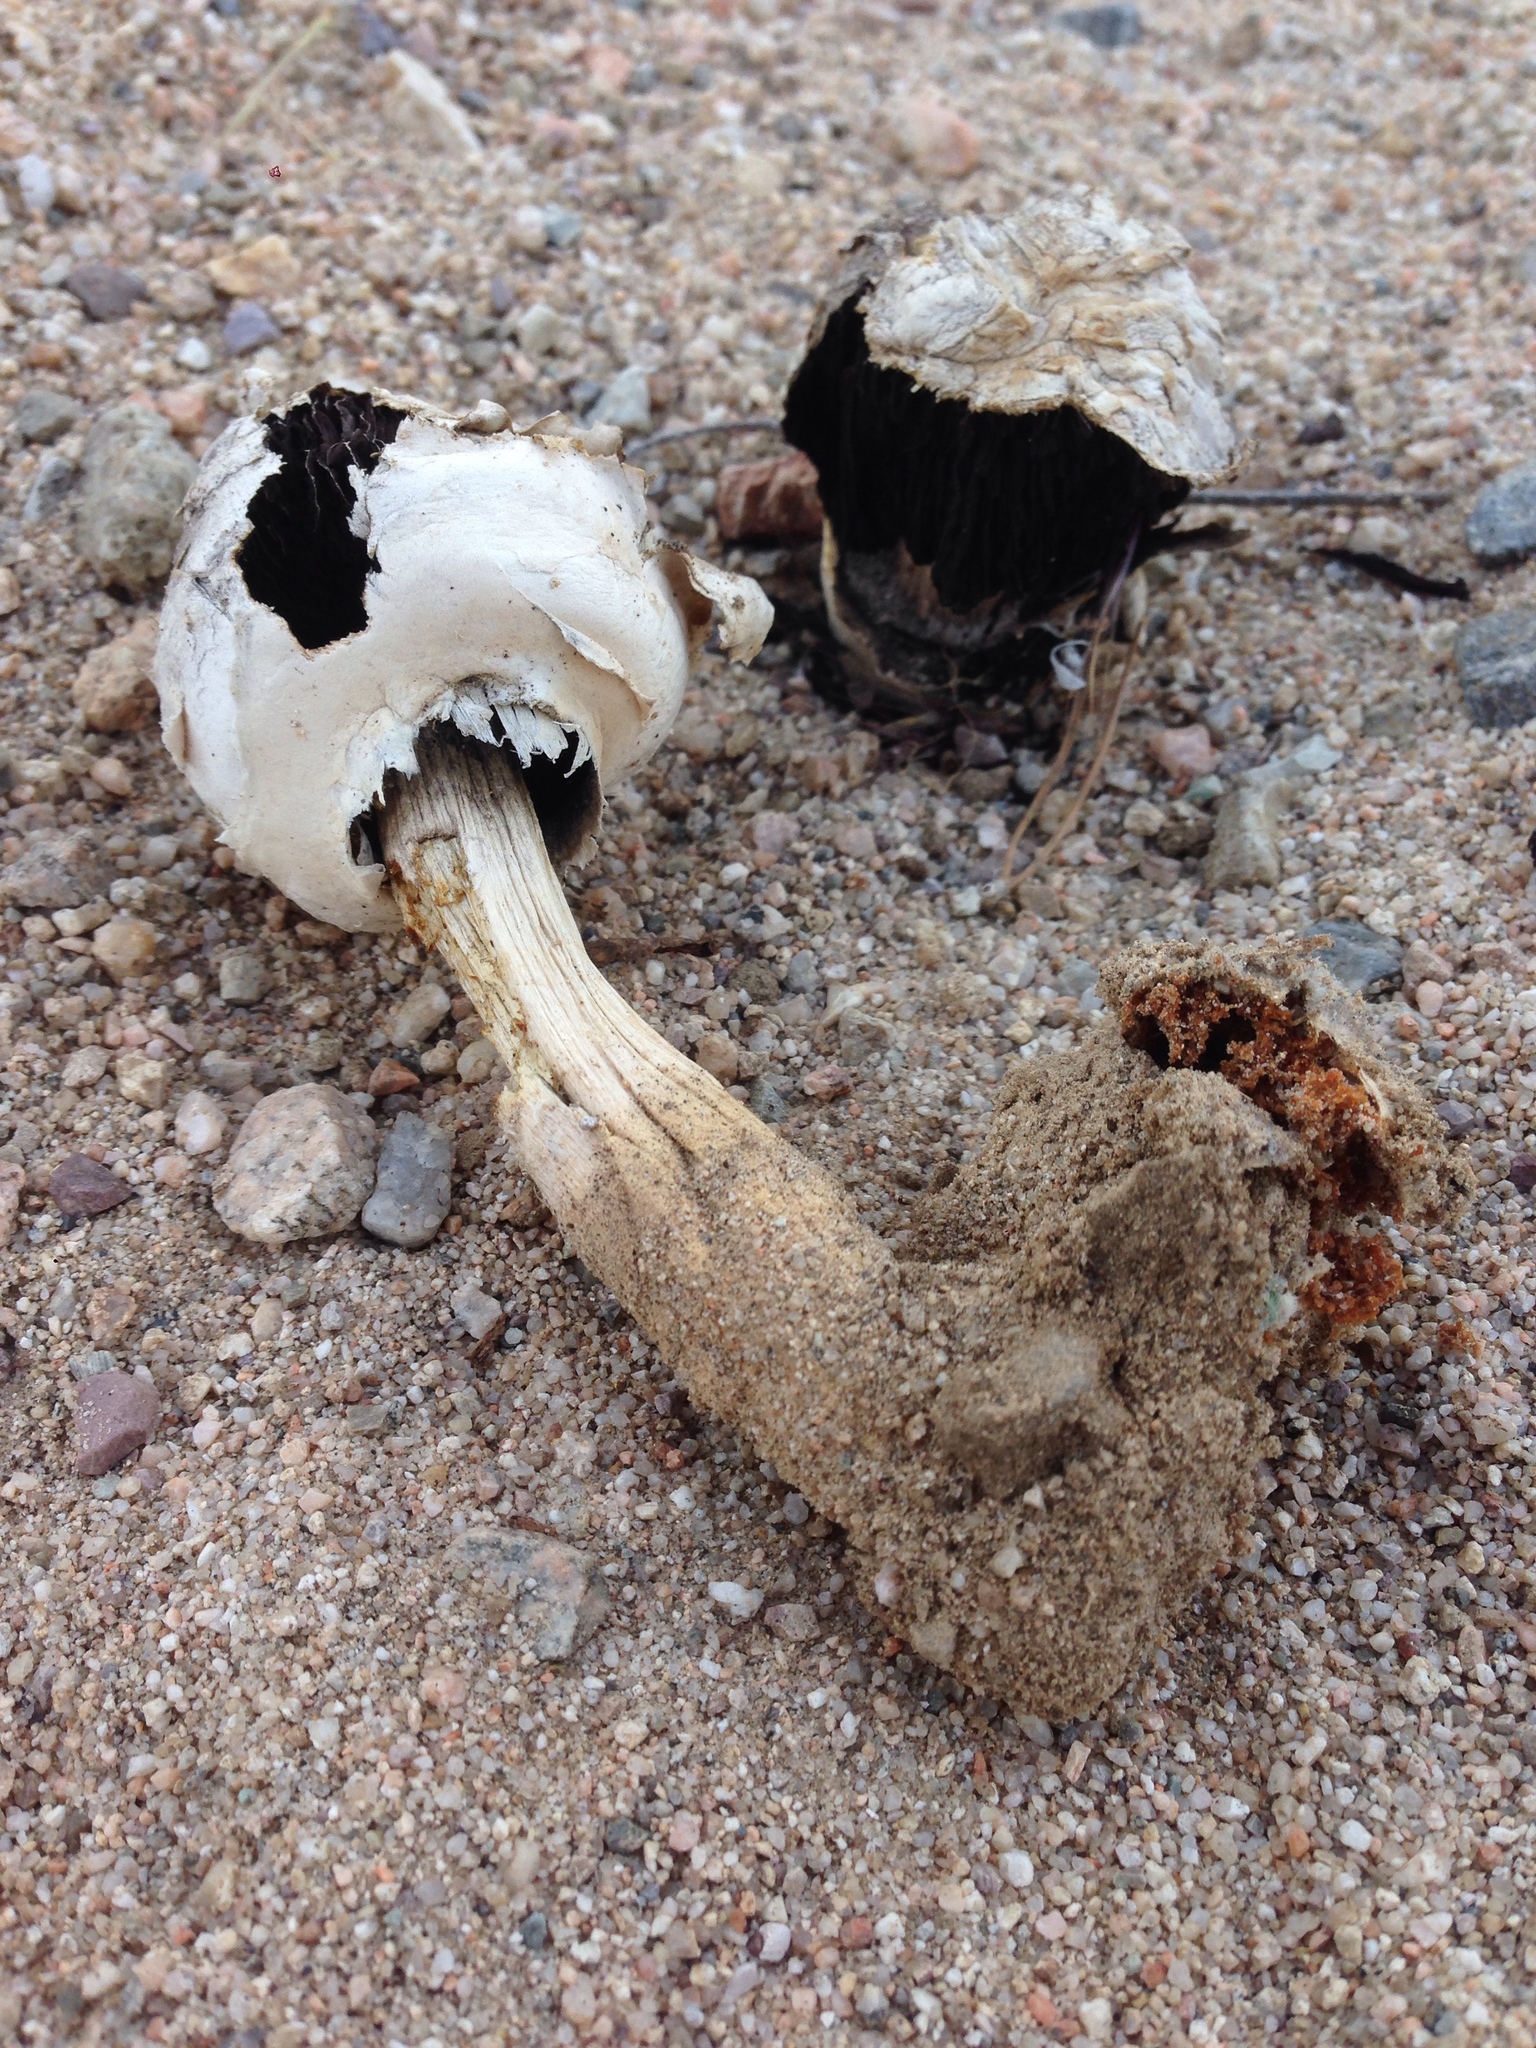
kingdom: Fungi
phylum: Basidiomycota
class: Agaricomycetes
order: Agaricales
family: Agaricaceae
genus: Agaricus
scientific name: Agaricus deserticola
